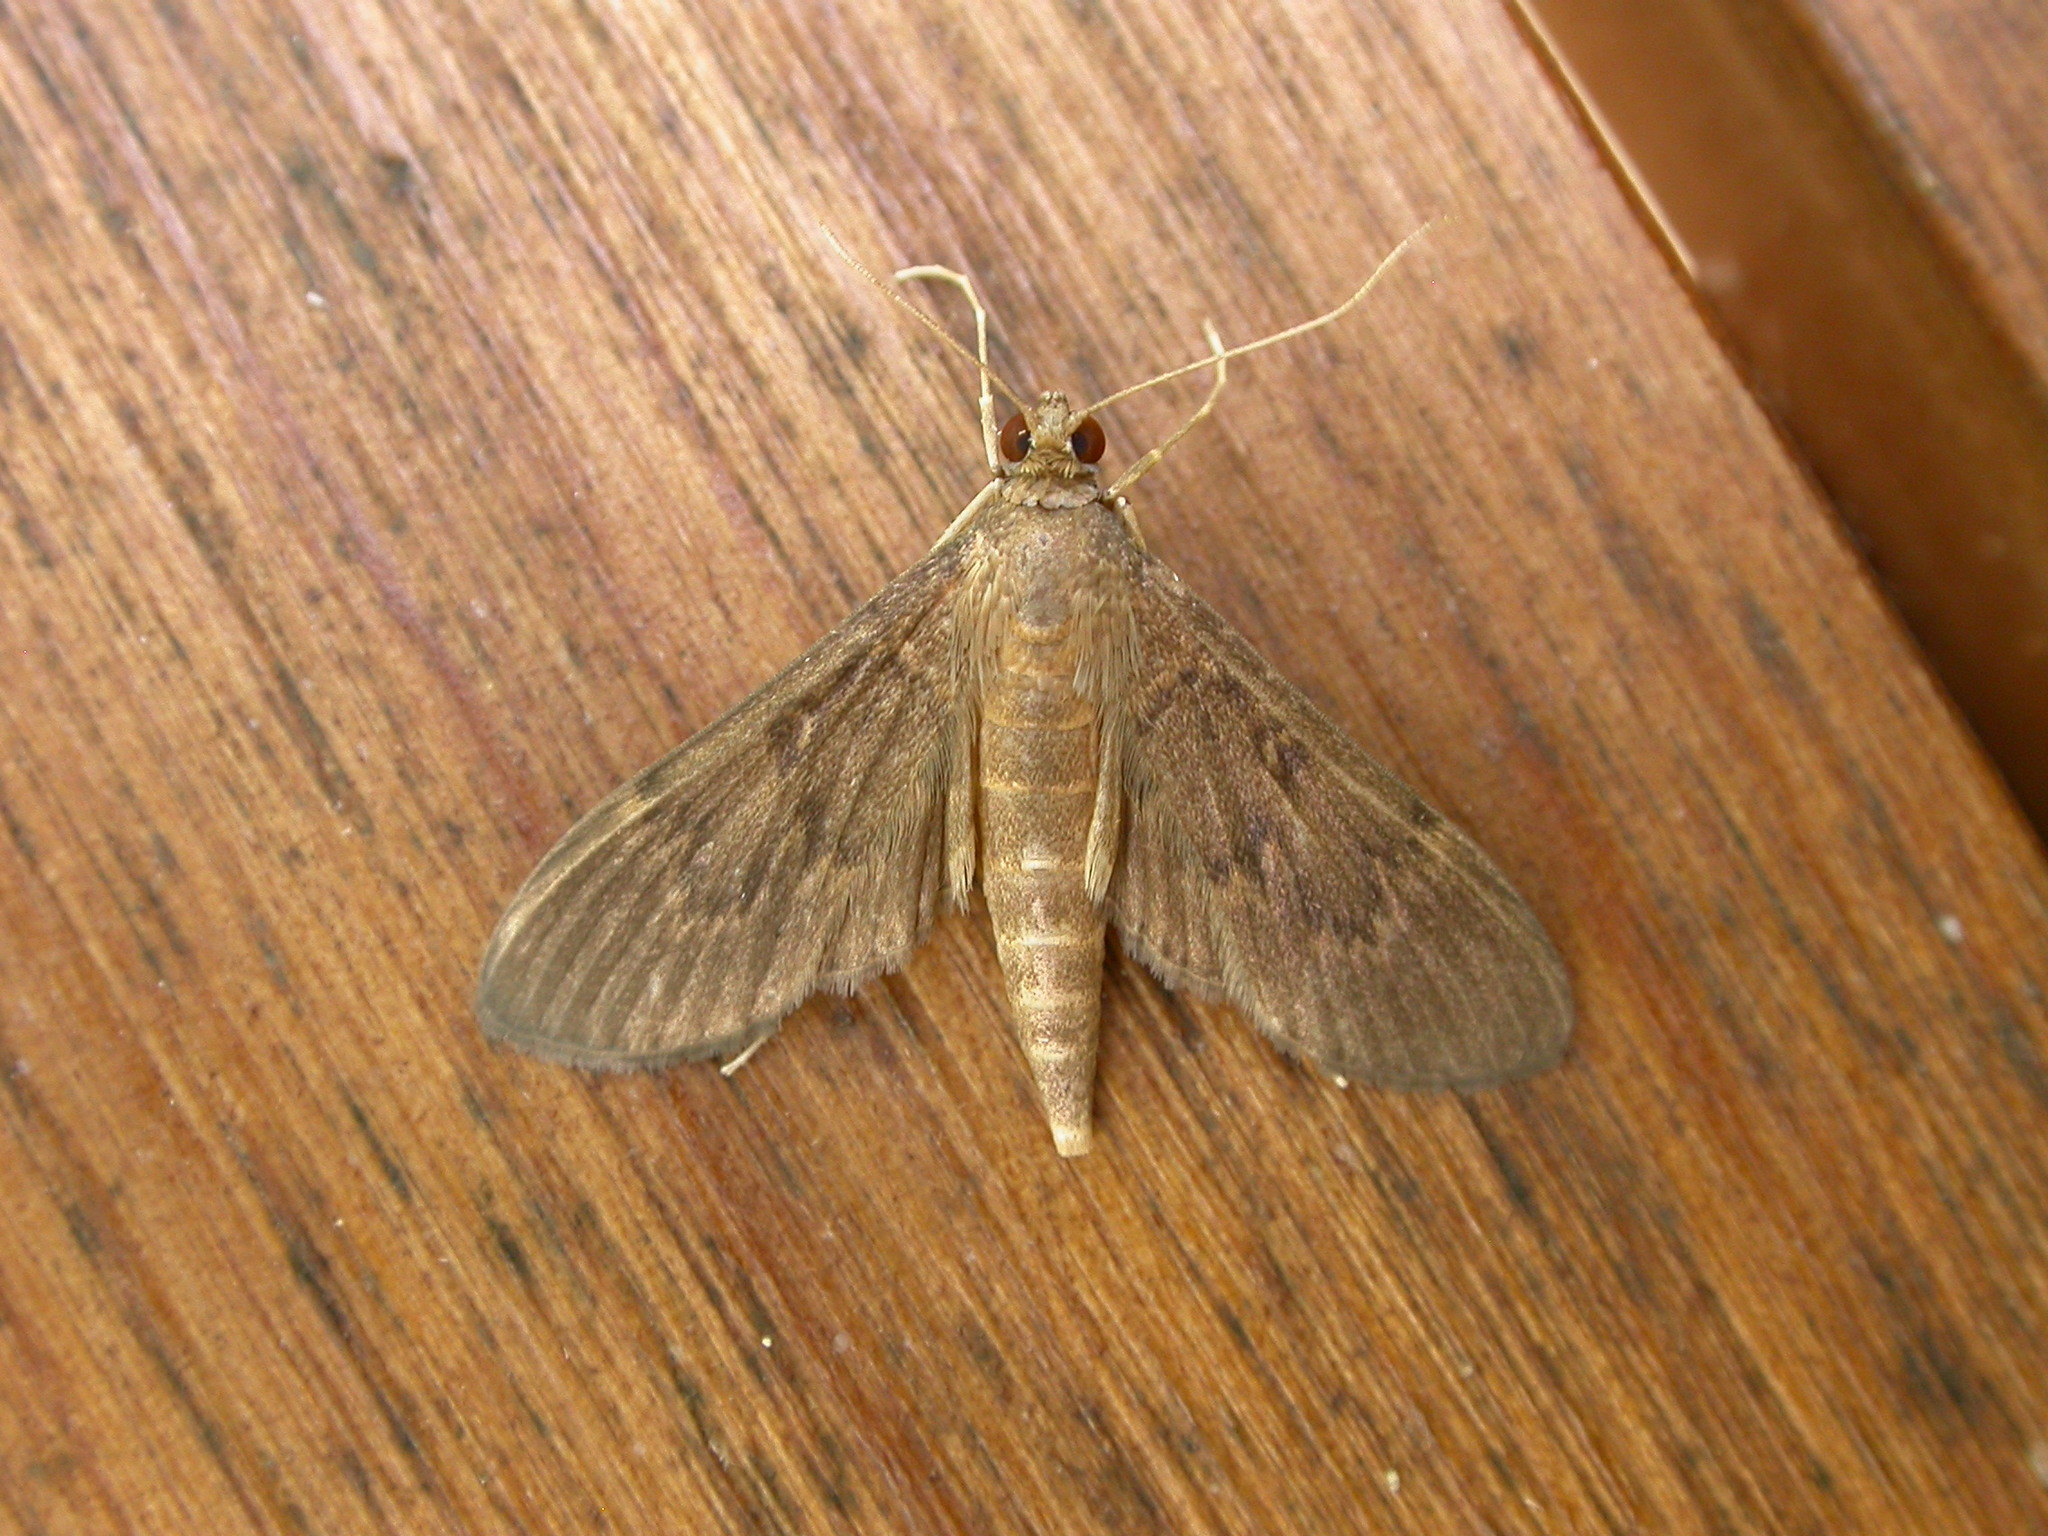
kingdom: Animalia
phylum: Arthropoda
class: Insecta
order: Lepidoptera
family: Crambidae
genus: Herpetogramma
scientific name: Herpetogramma licarsisalis
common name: Grass webworm
